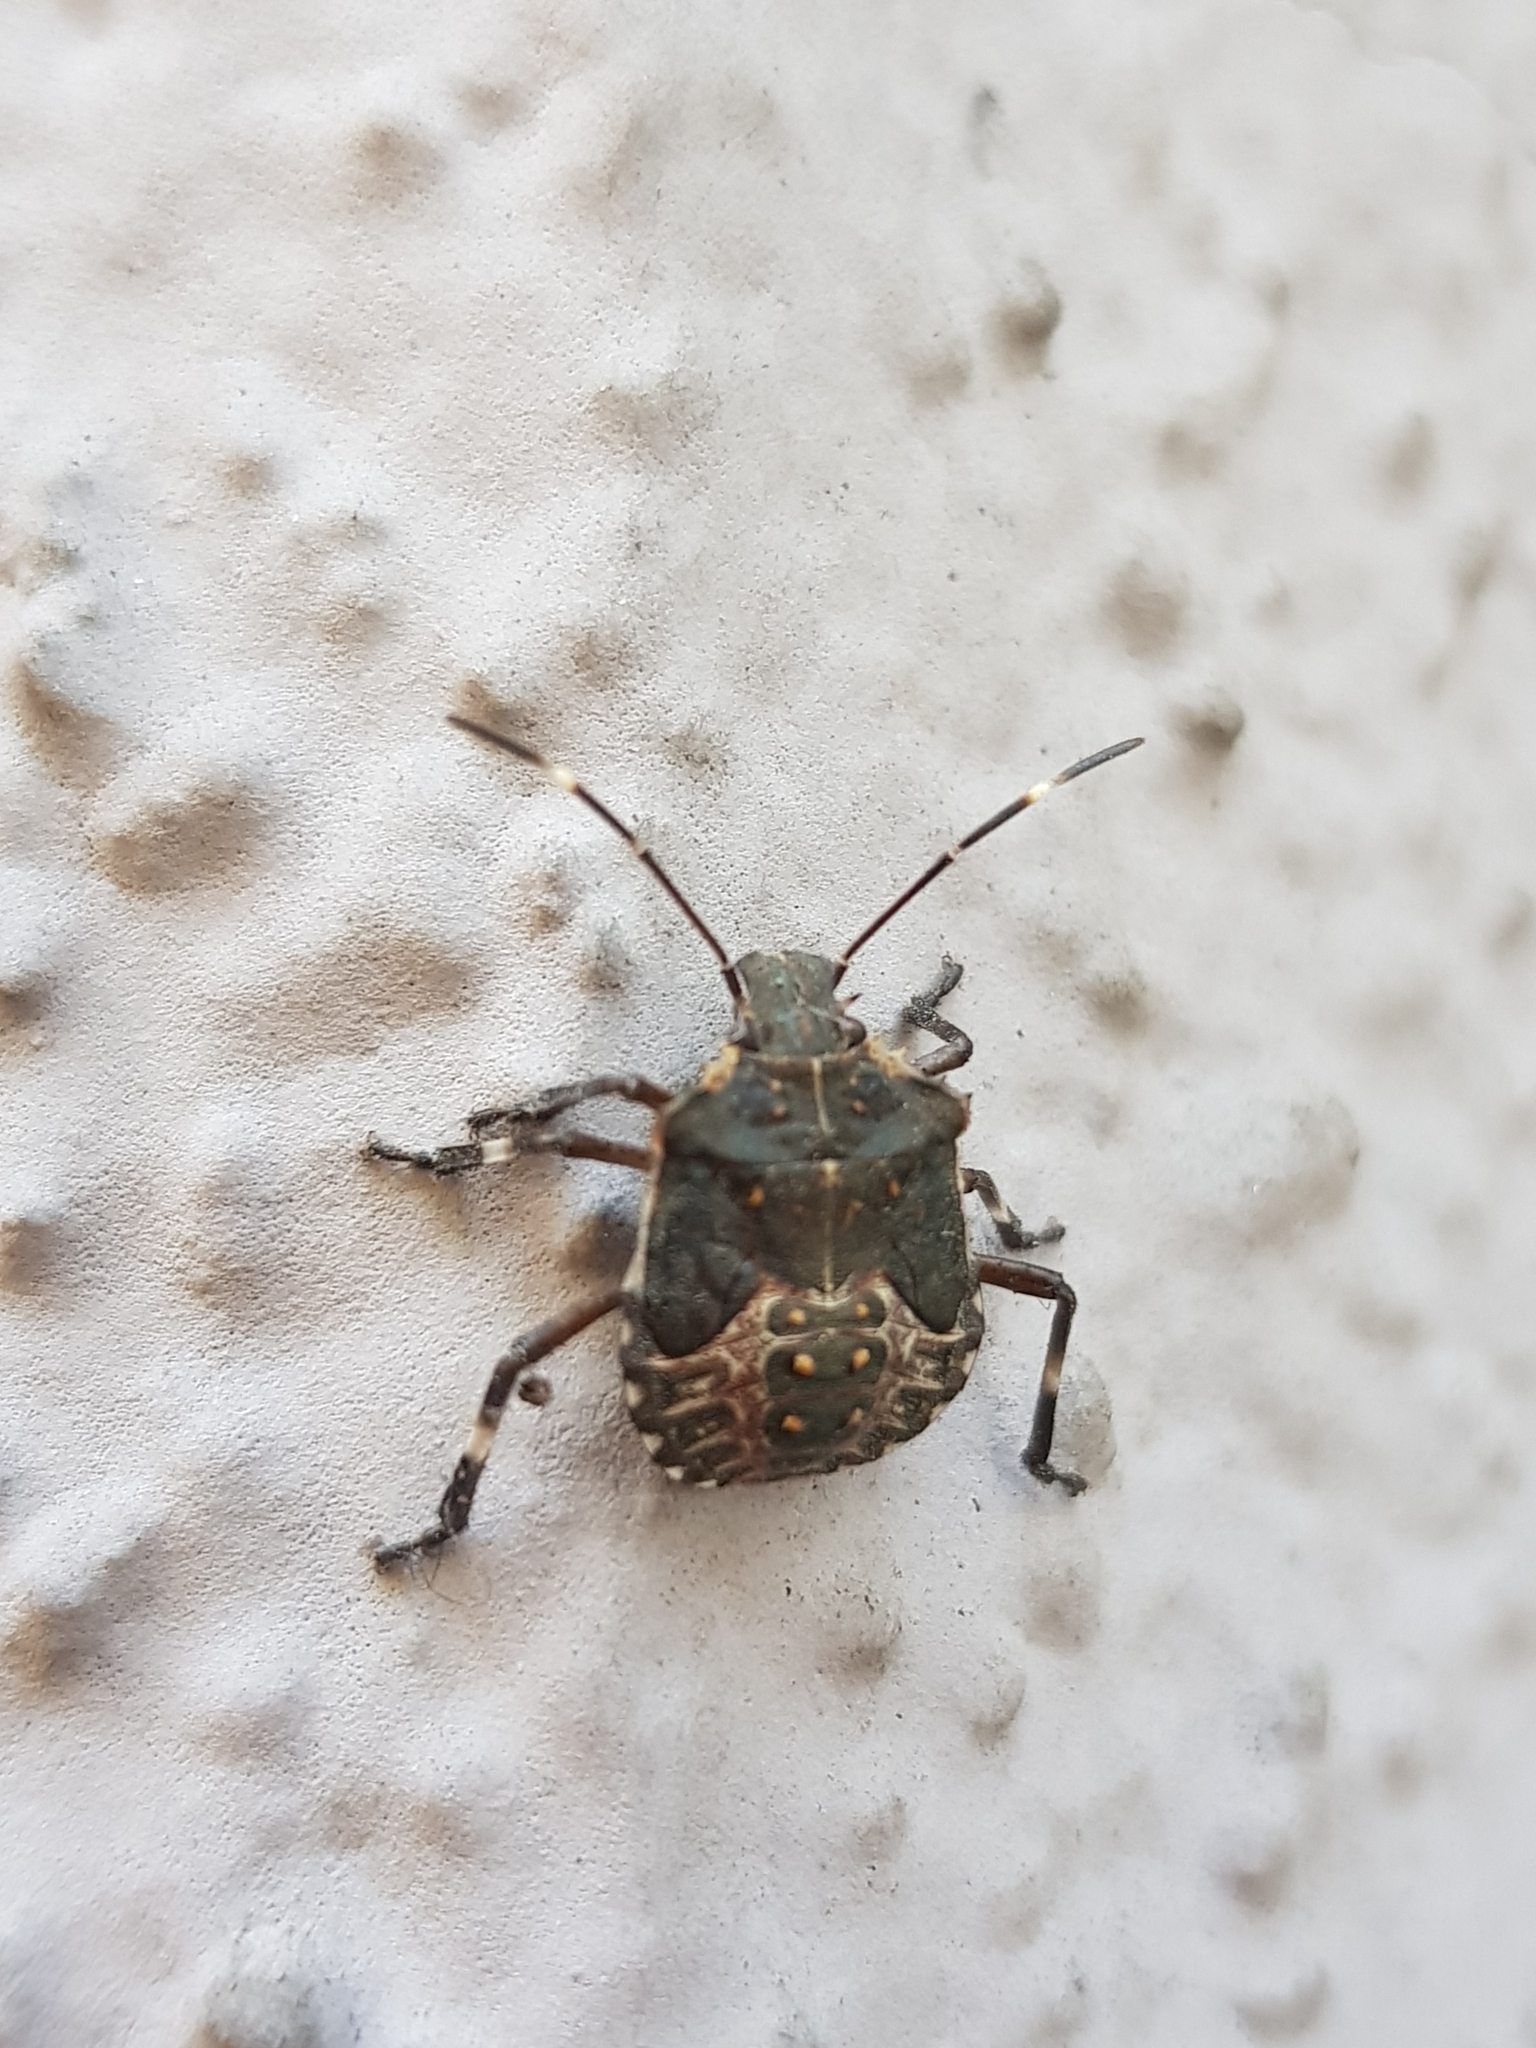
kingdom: Animalia
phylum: Arthropoda
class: Insecta
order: Hemiptera
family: Pentatomidae
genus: Halyomorpha
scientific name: Halyomorpha halys
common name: Brown marmorated stink bug
